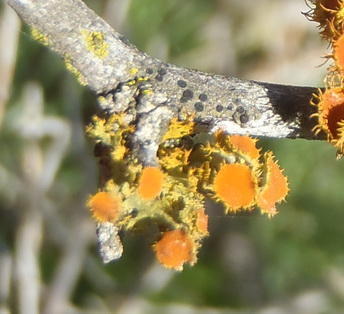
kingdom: Fungi
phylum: Ascomycota
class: Lecanoromycetes
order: Teloschistales
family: Teloschistaceae
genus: Niorma
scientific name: Niorma chrysophthalma
